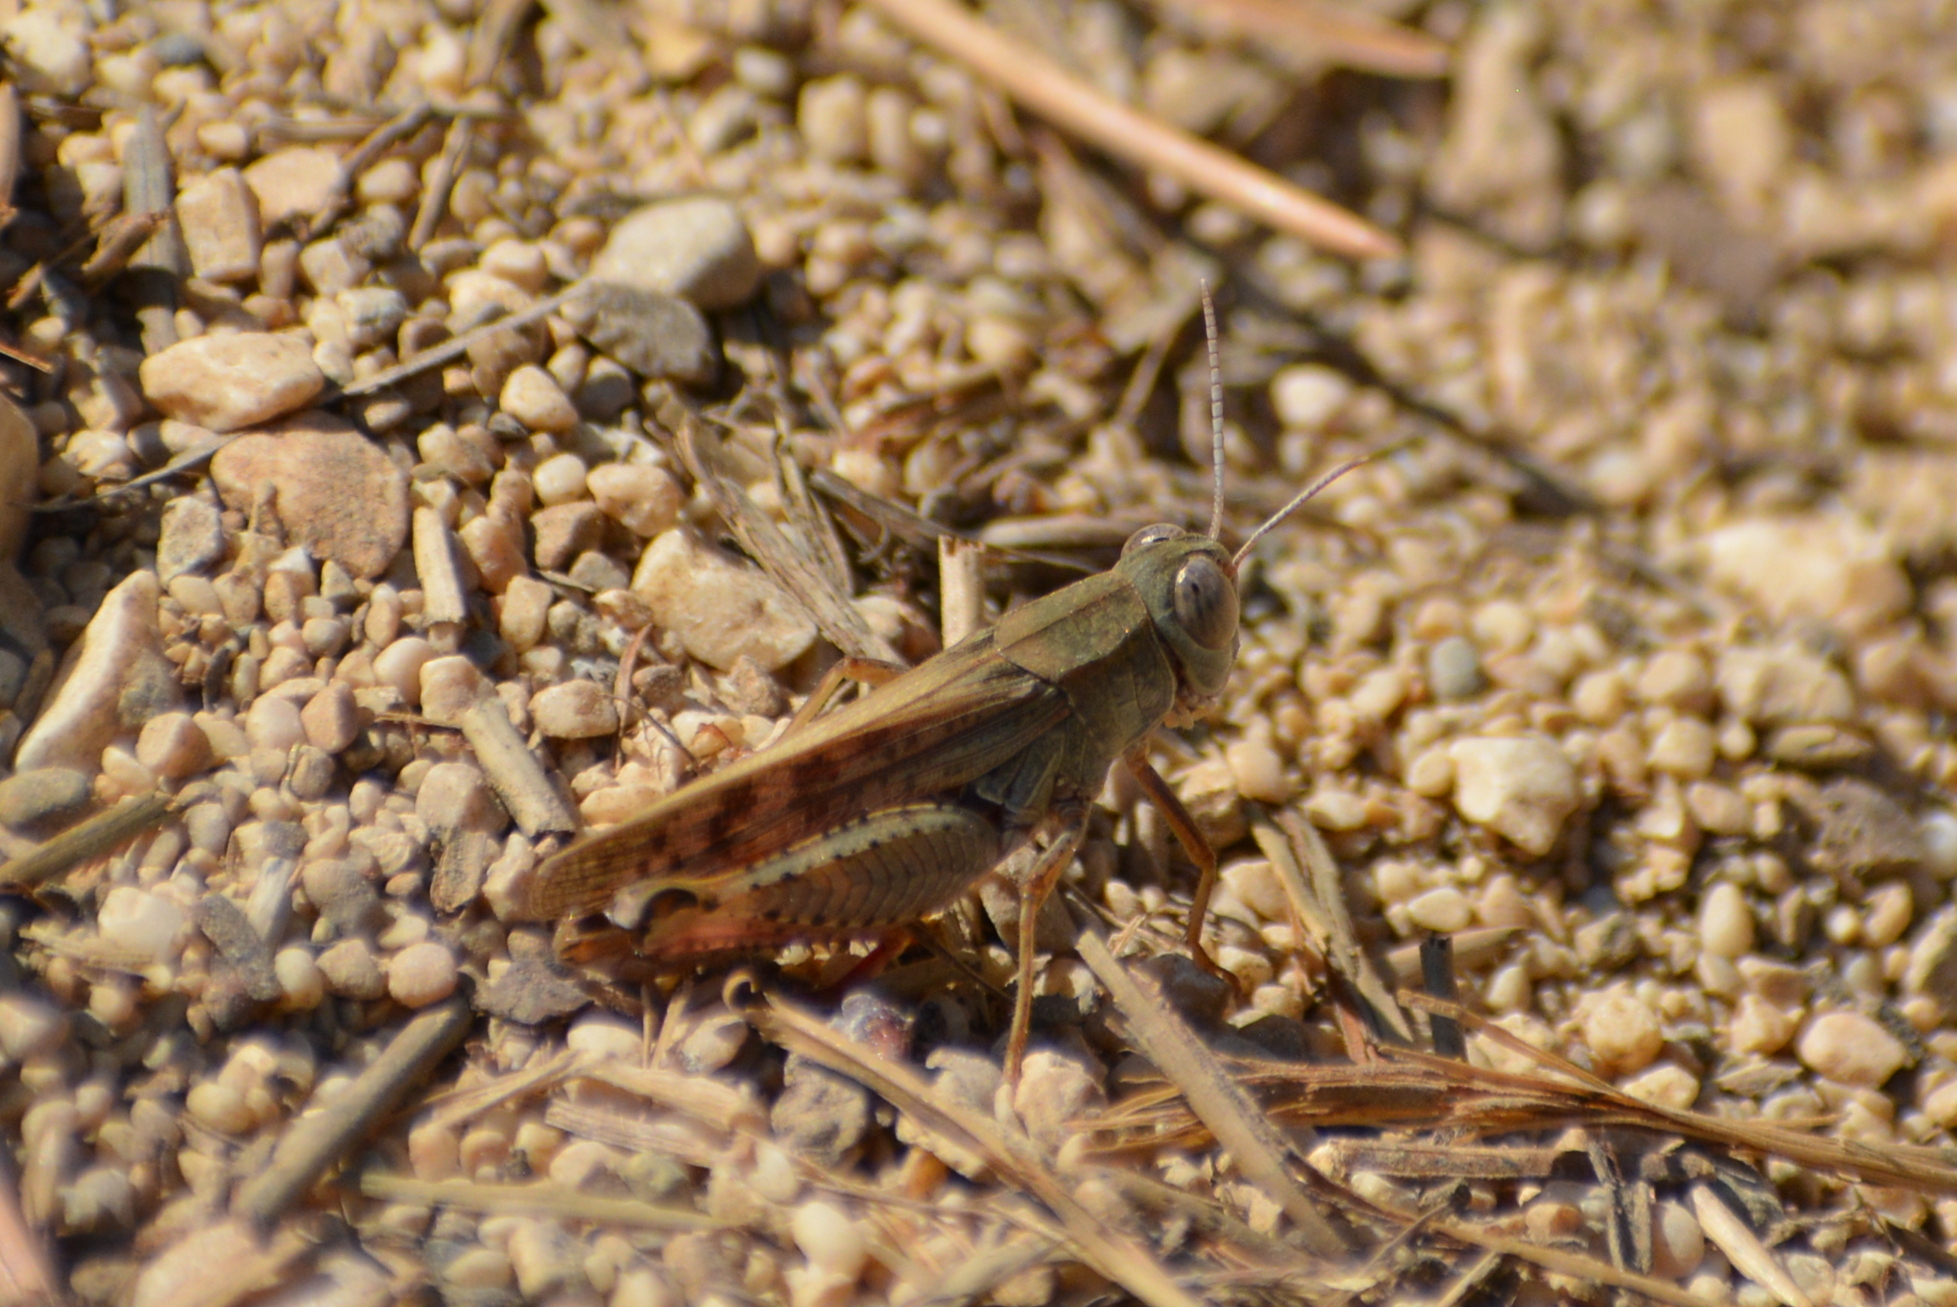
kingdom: Animalia
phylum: Arthropoda
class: Insecta
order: Orthoptera
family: Acrididae
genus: Calliptamus
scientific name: Calliptamus italicus
